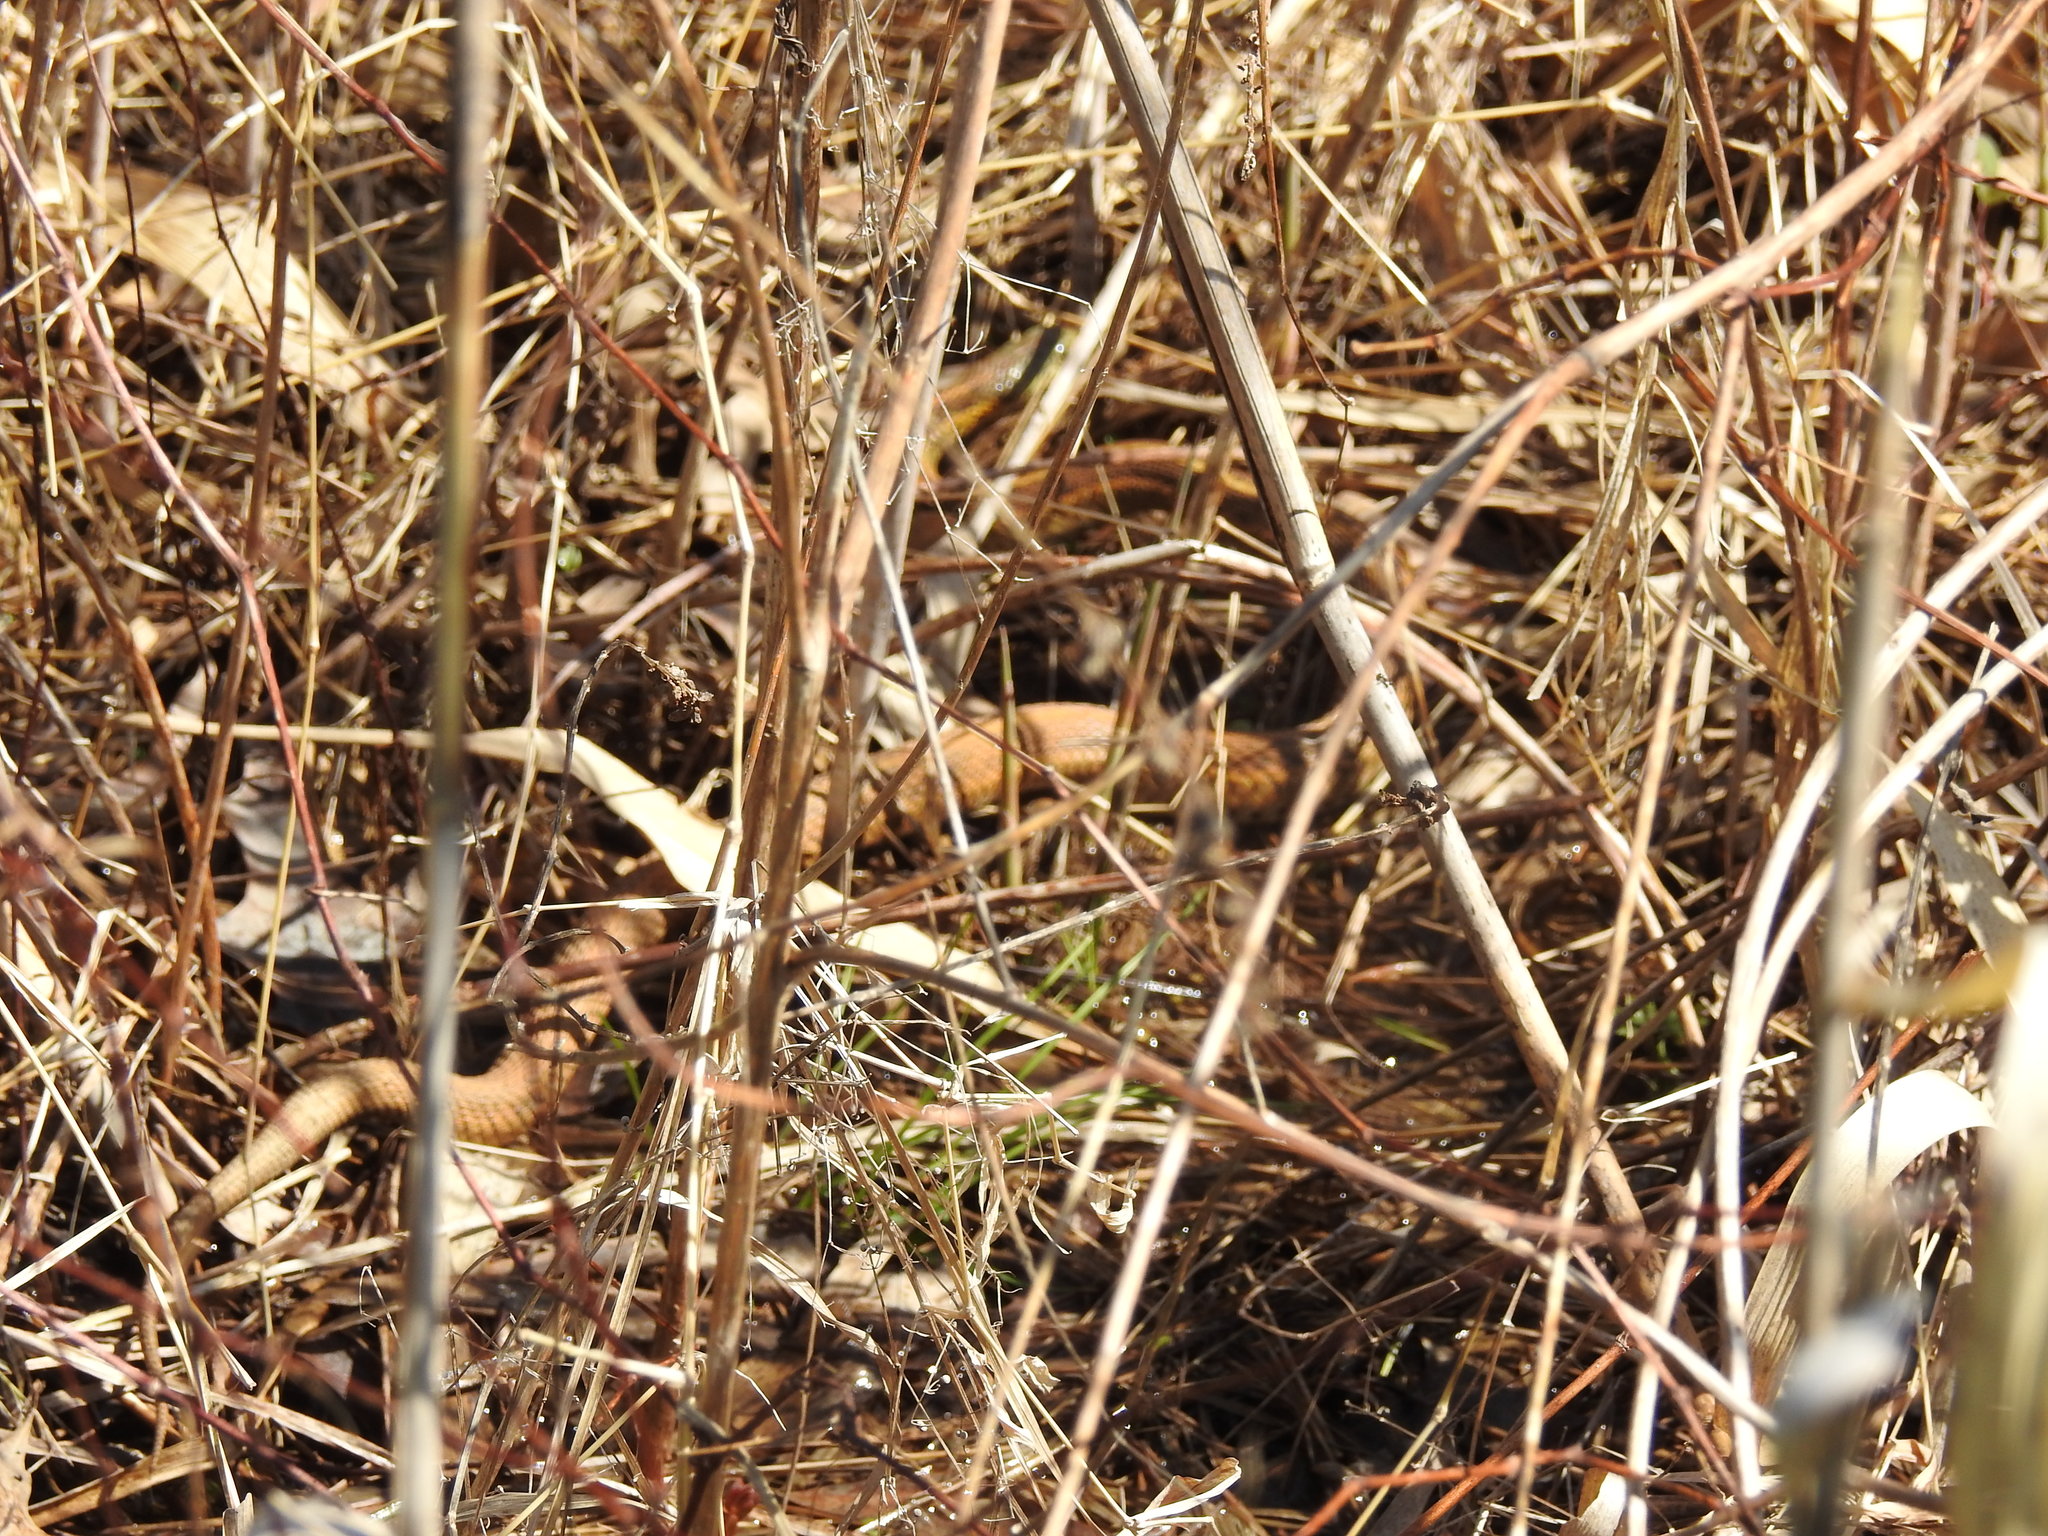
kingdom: Animalia
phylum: Chordata
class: Squamata
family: Colubridae
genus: Thamnophis
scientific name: Thamnophis sirtalis
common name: Common garter snake
